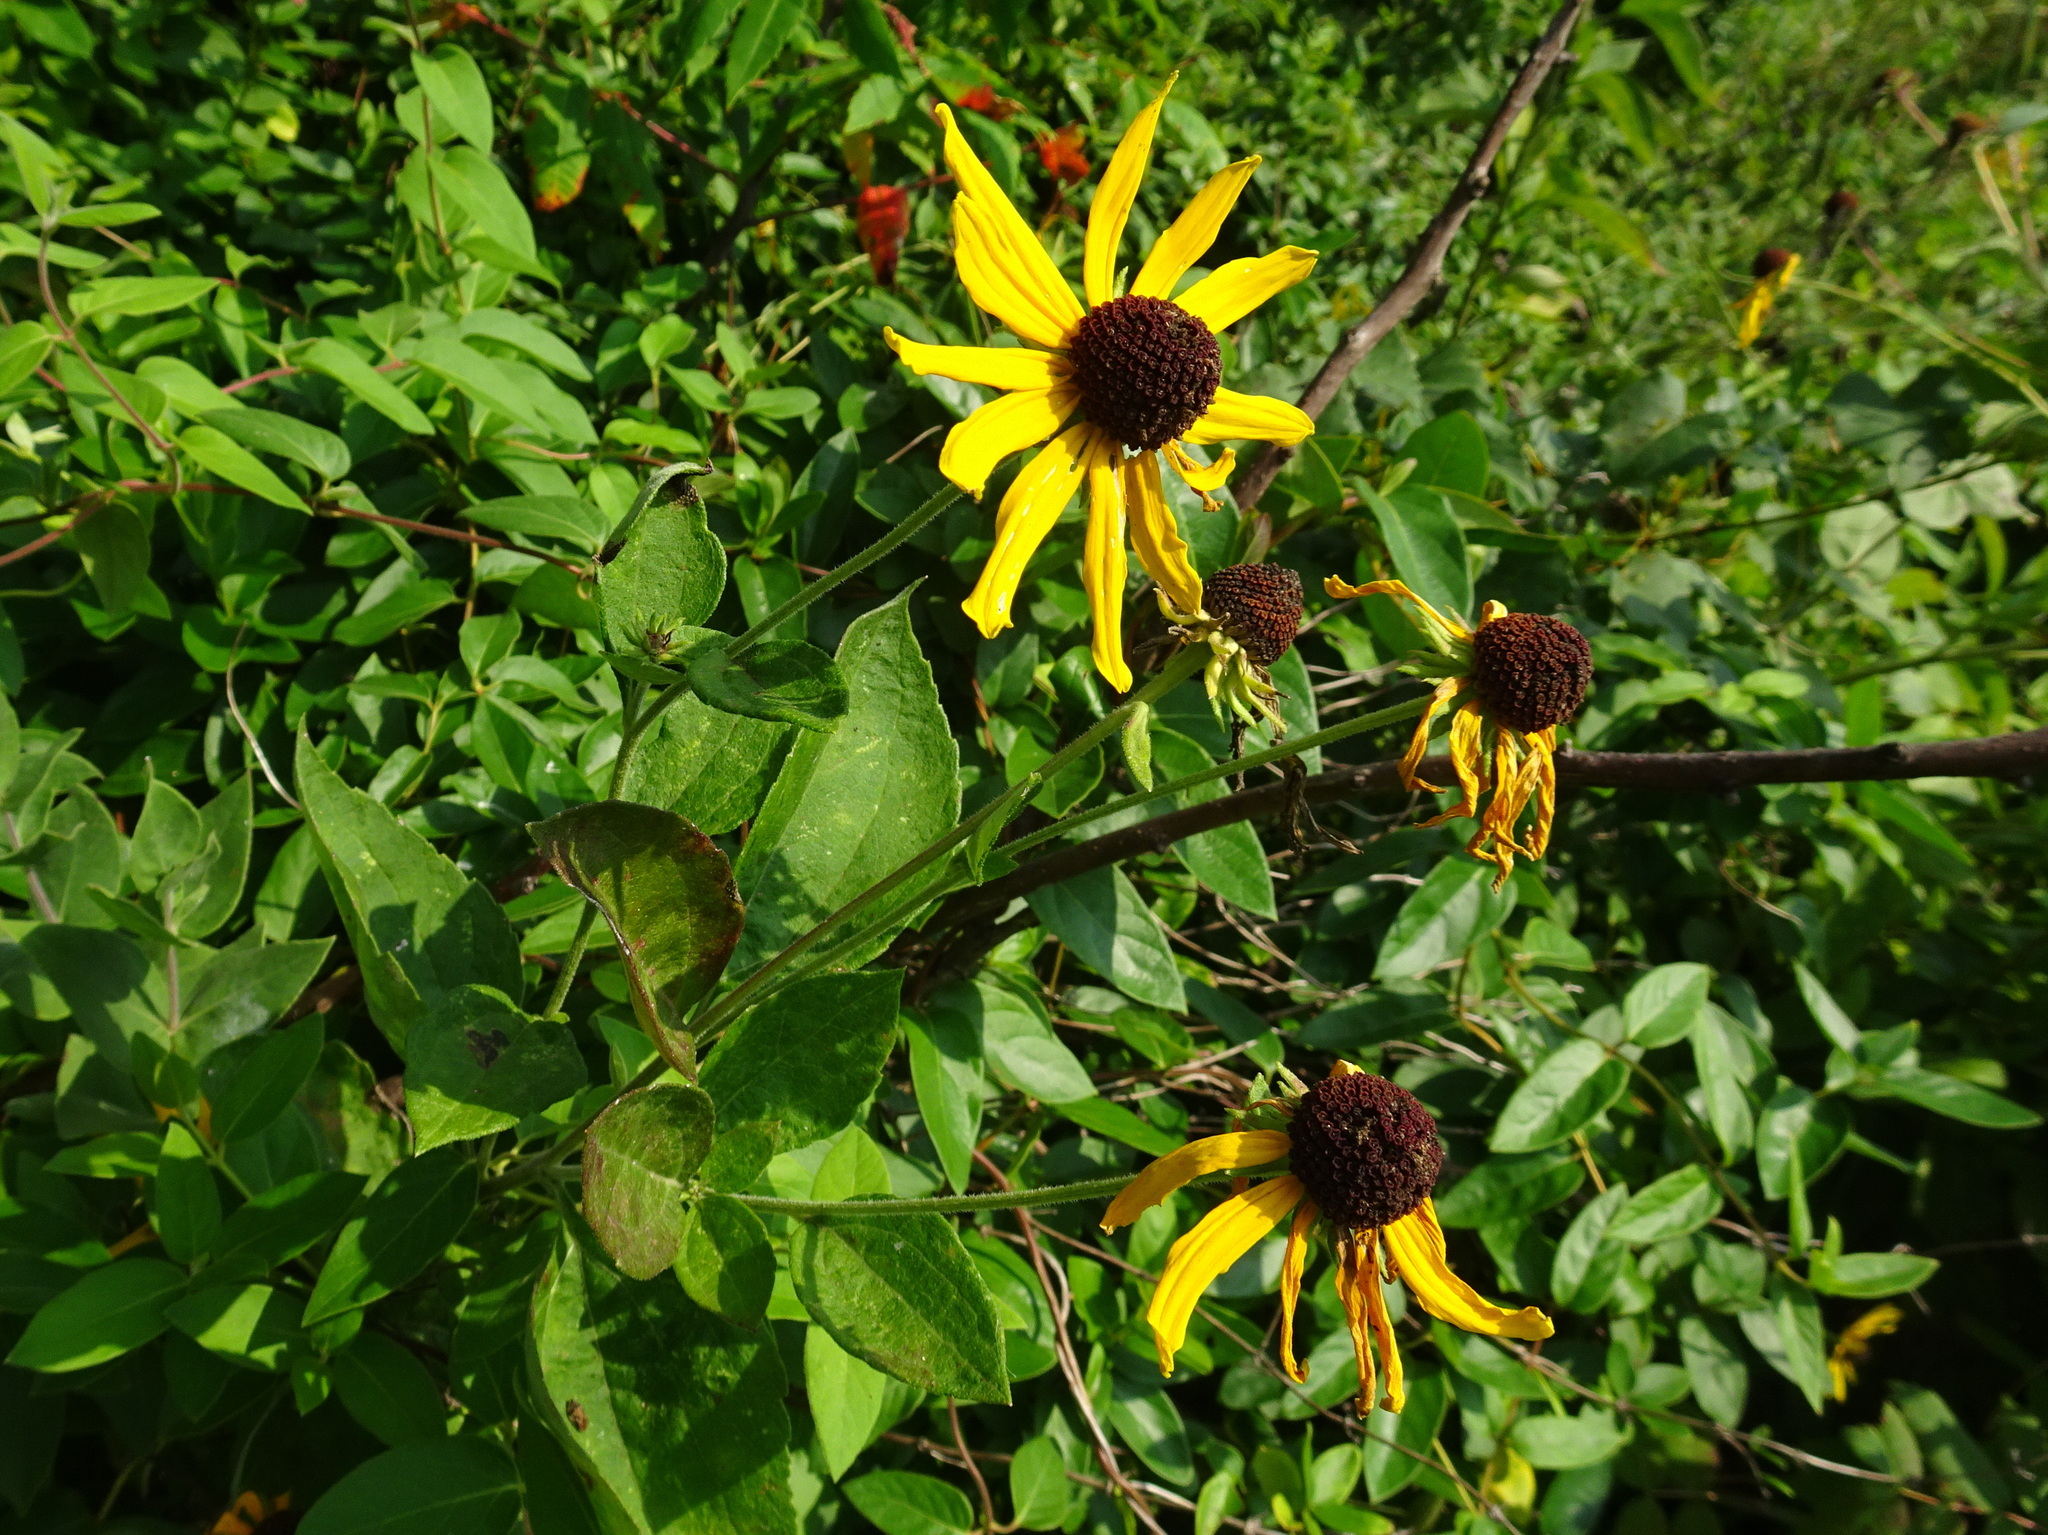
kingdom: Plantae
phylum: Tracheophyta
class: Magnoliopsida
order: Asterales
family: Asteraceae
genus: Rudbeckia
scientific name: Rudbeckia subtomentosa
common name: Sweet coneflower
